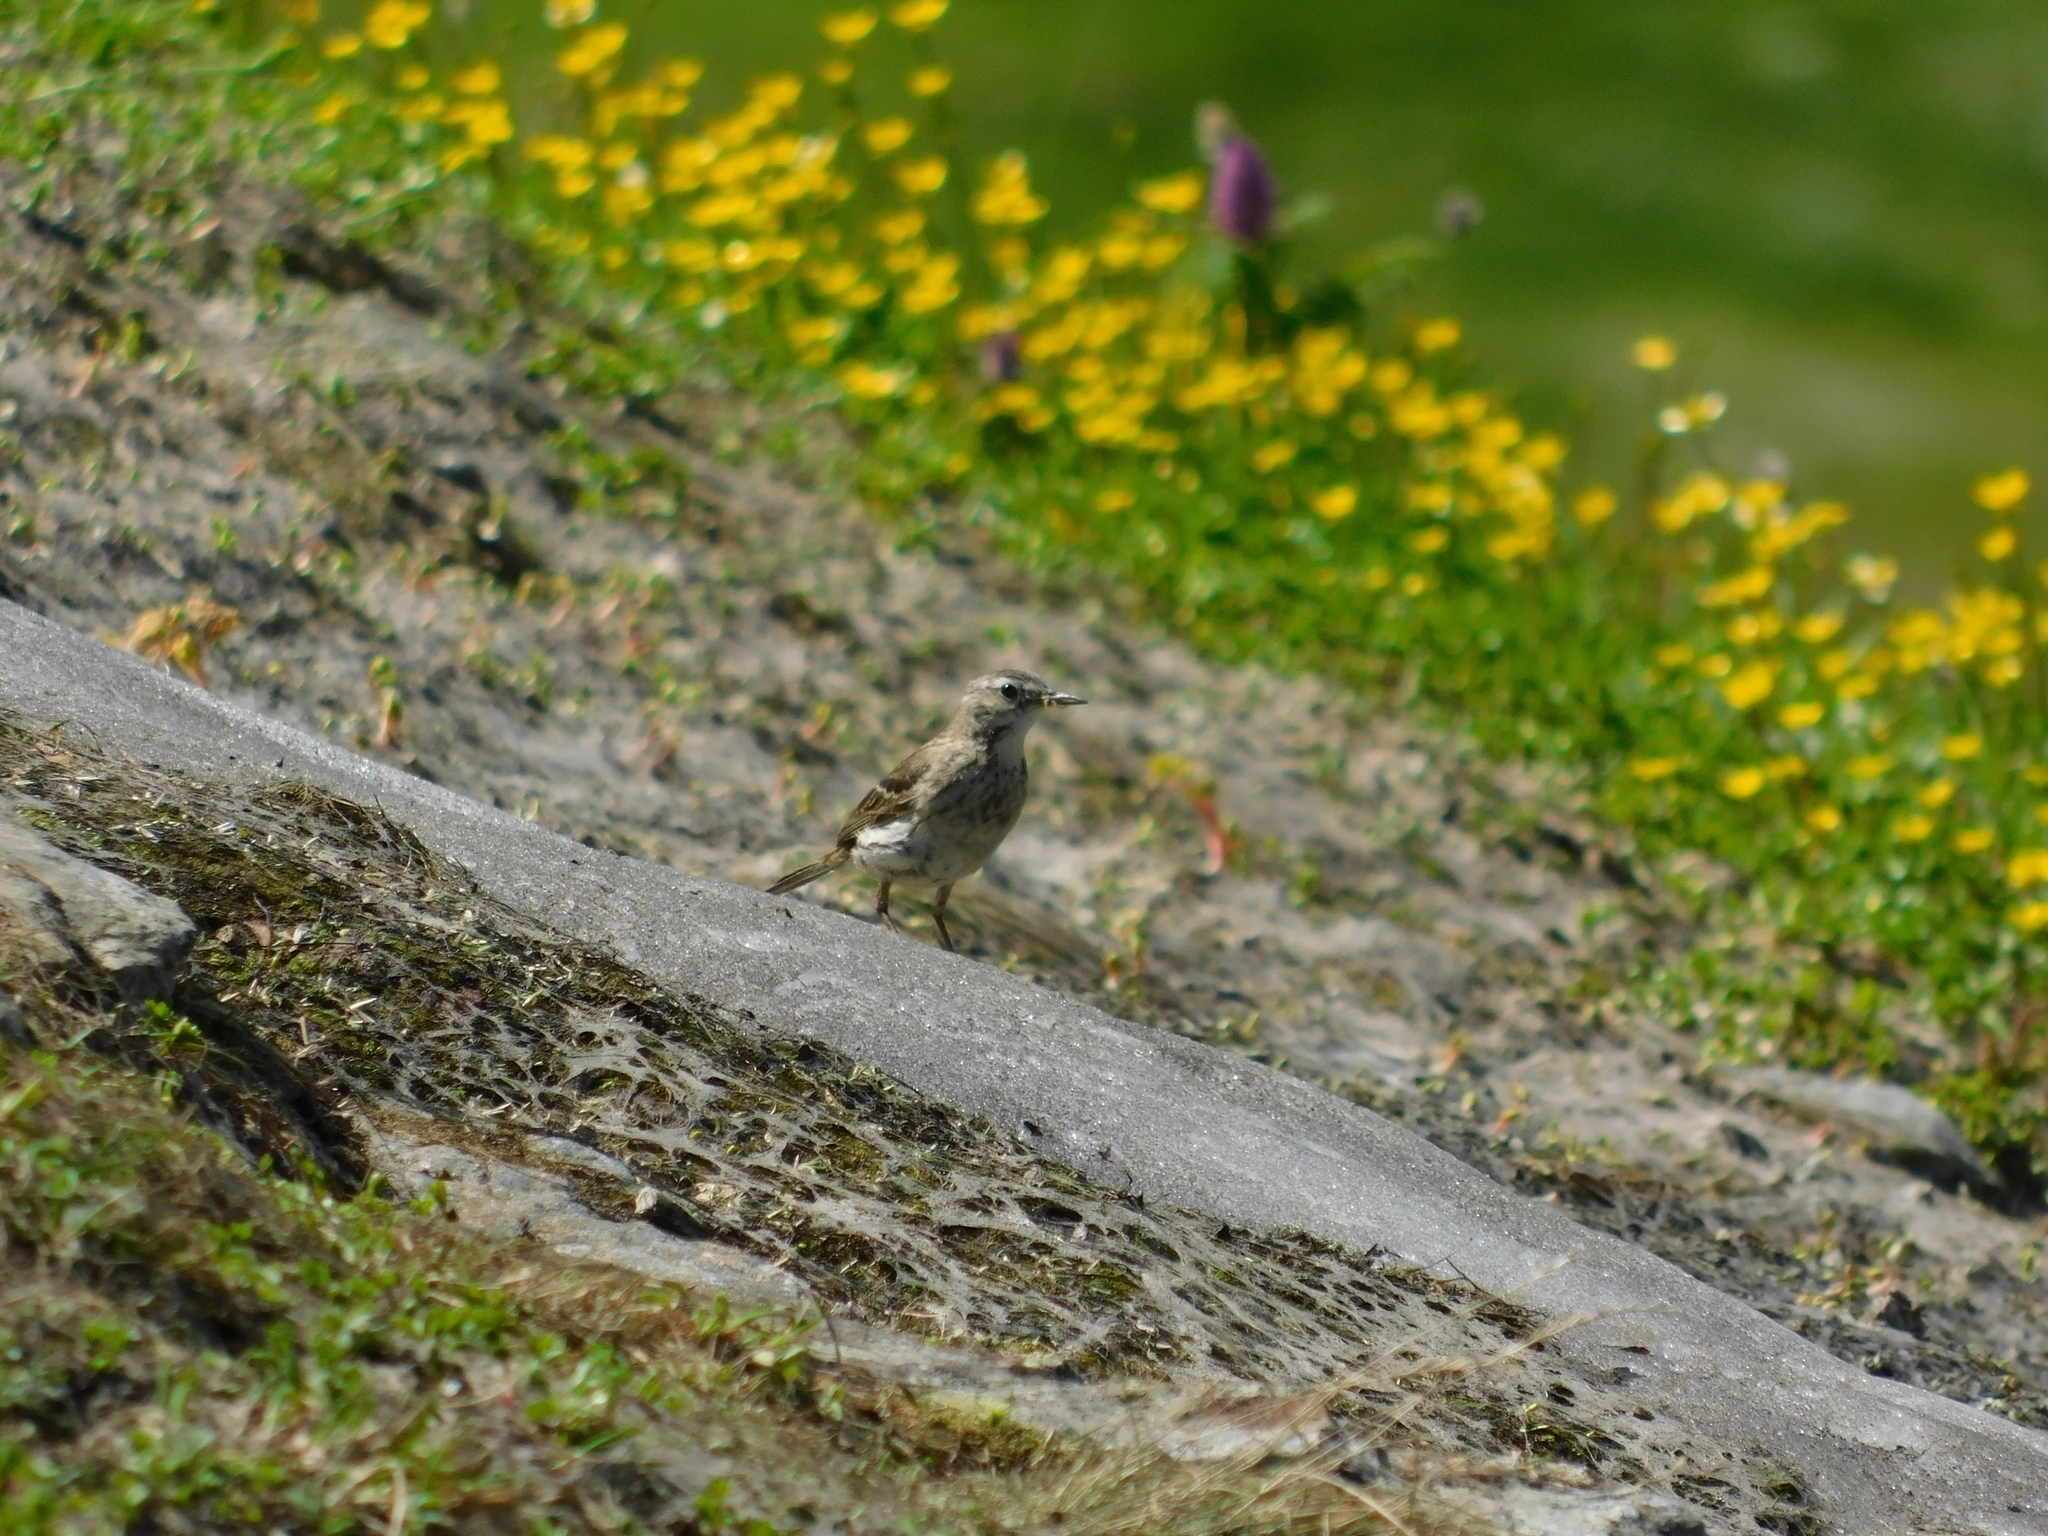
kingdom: Animalia
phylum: Chordata
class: Aves
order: Passeriformes
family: Motacillidae
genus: Anthus
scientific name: Anthus spinoletta
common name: Water pipit
